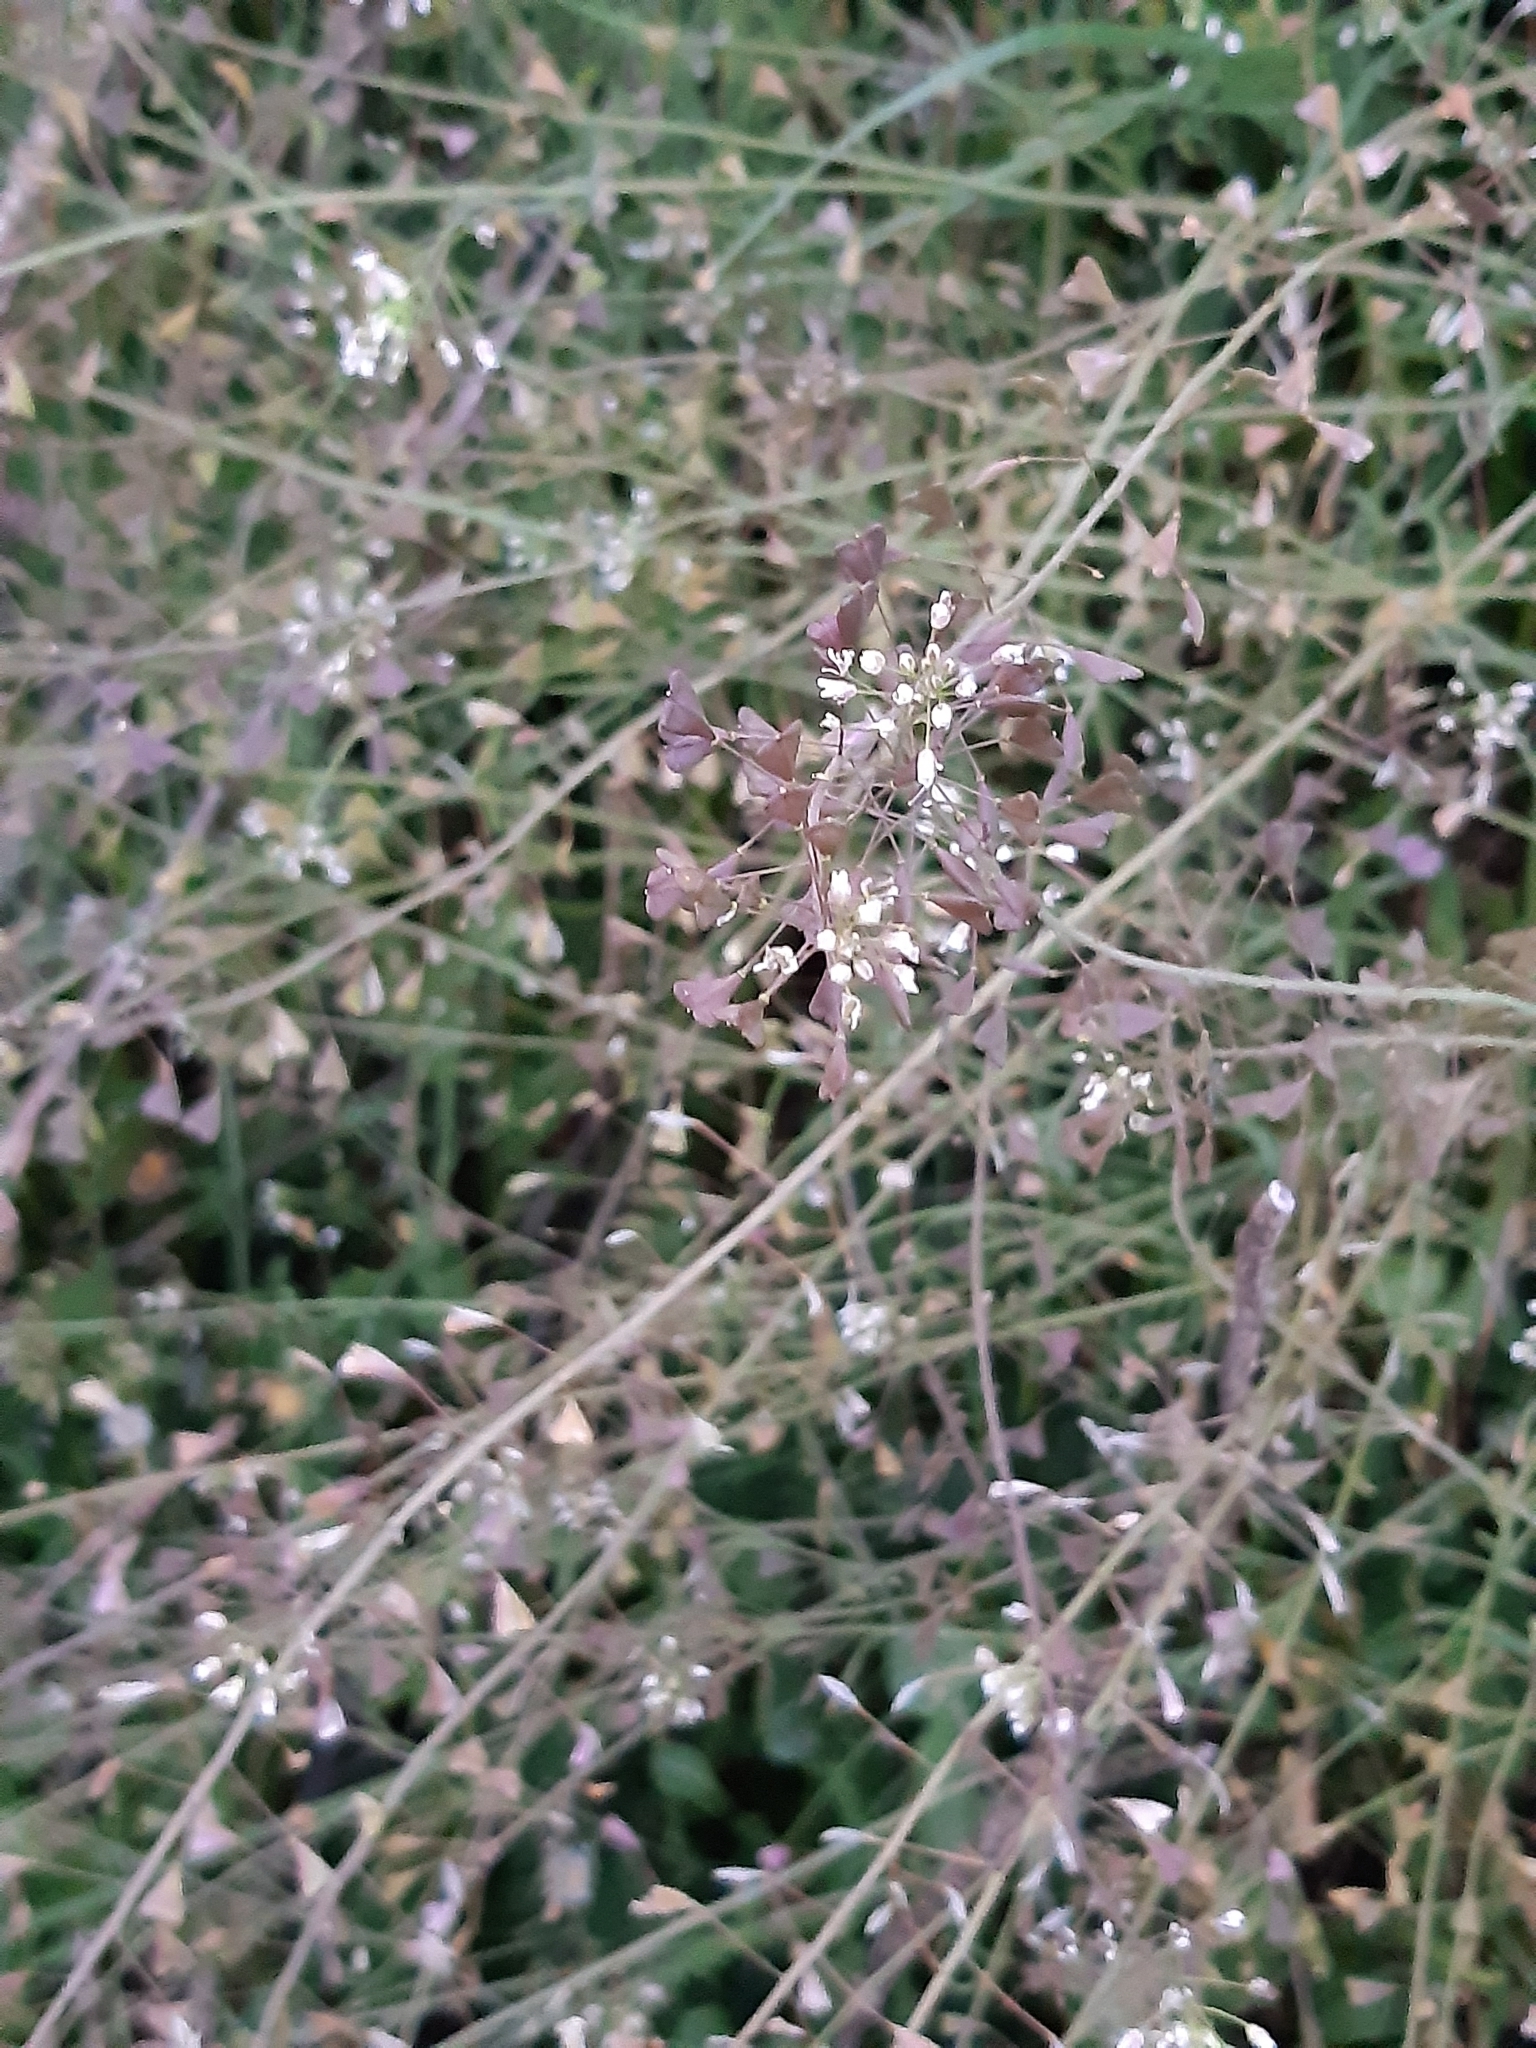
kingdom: Plantae
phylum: Tracheophyta
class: Magnoliopsida
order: Brassicales
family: Brassicaceae
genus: Capsella
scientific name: Capsella bursa-pastoris
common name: Shepherd's purse
